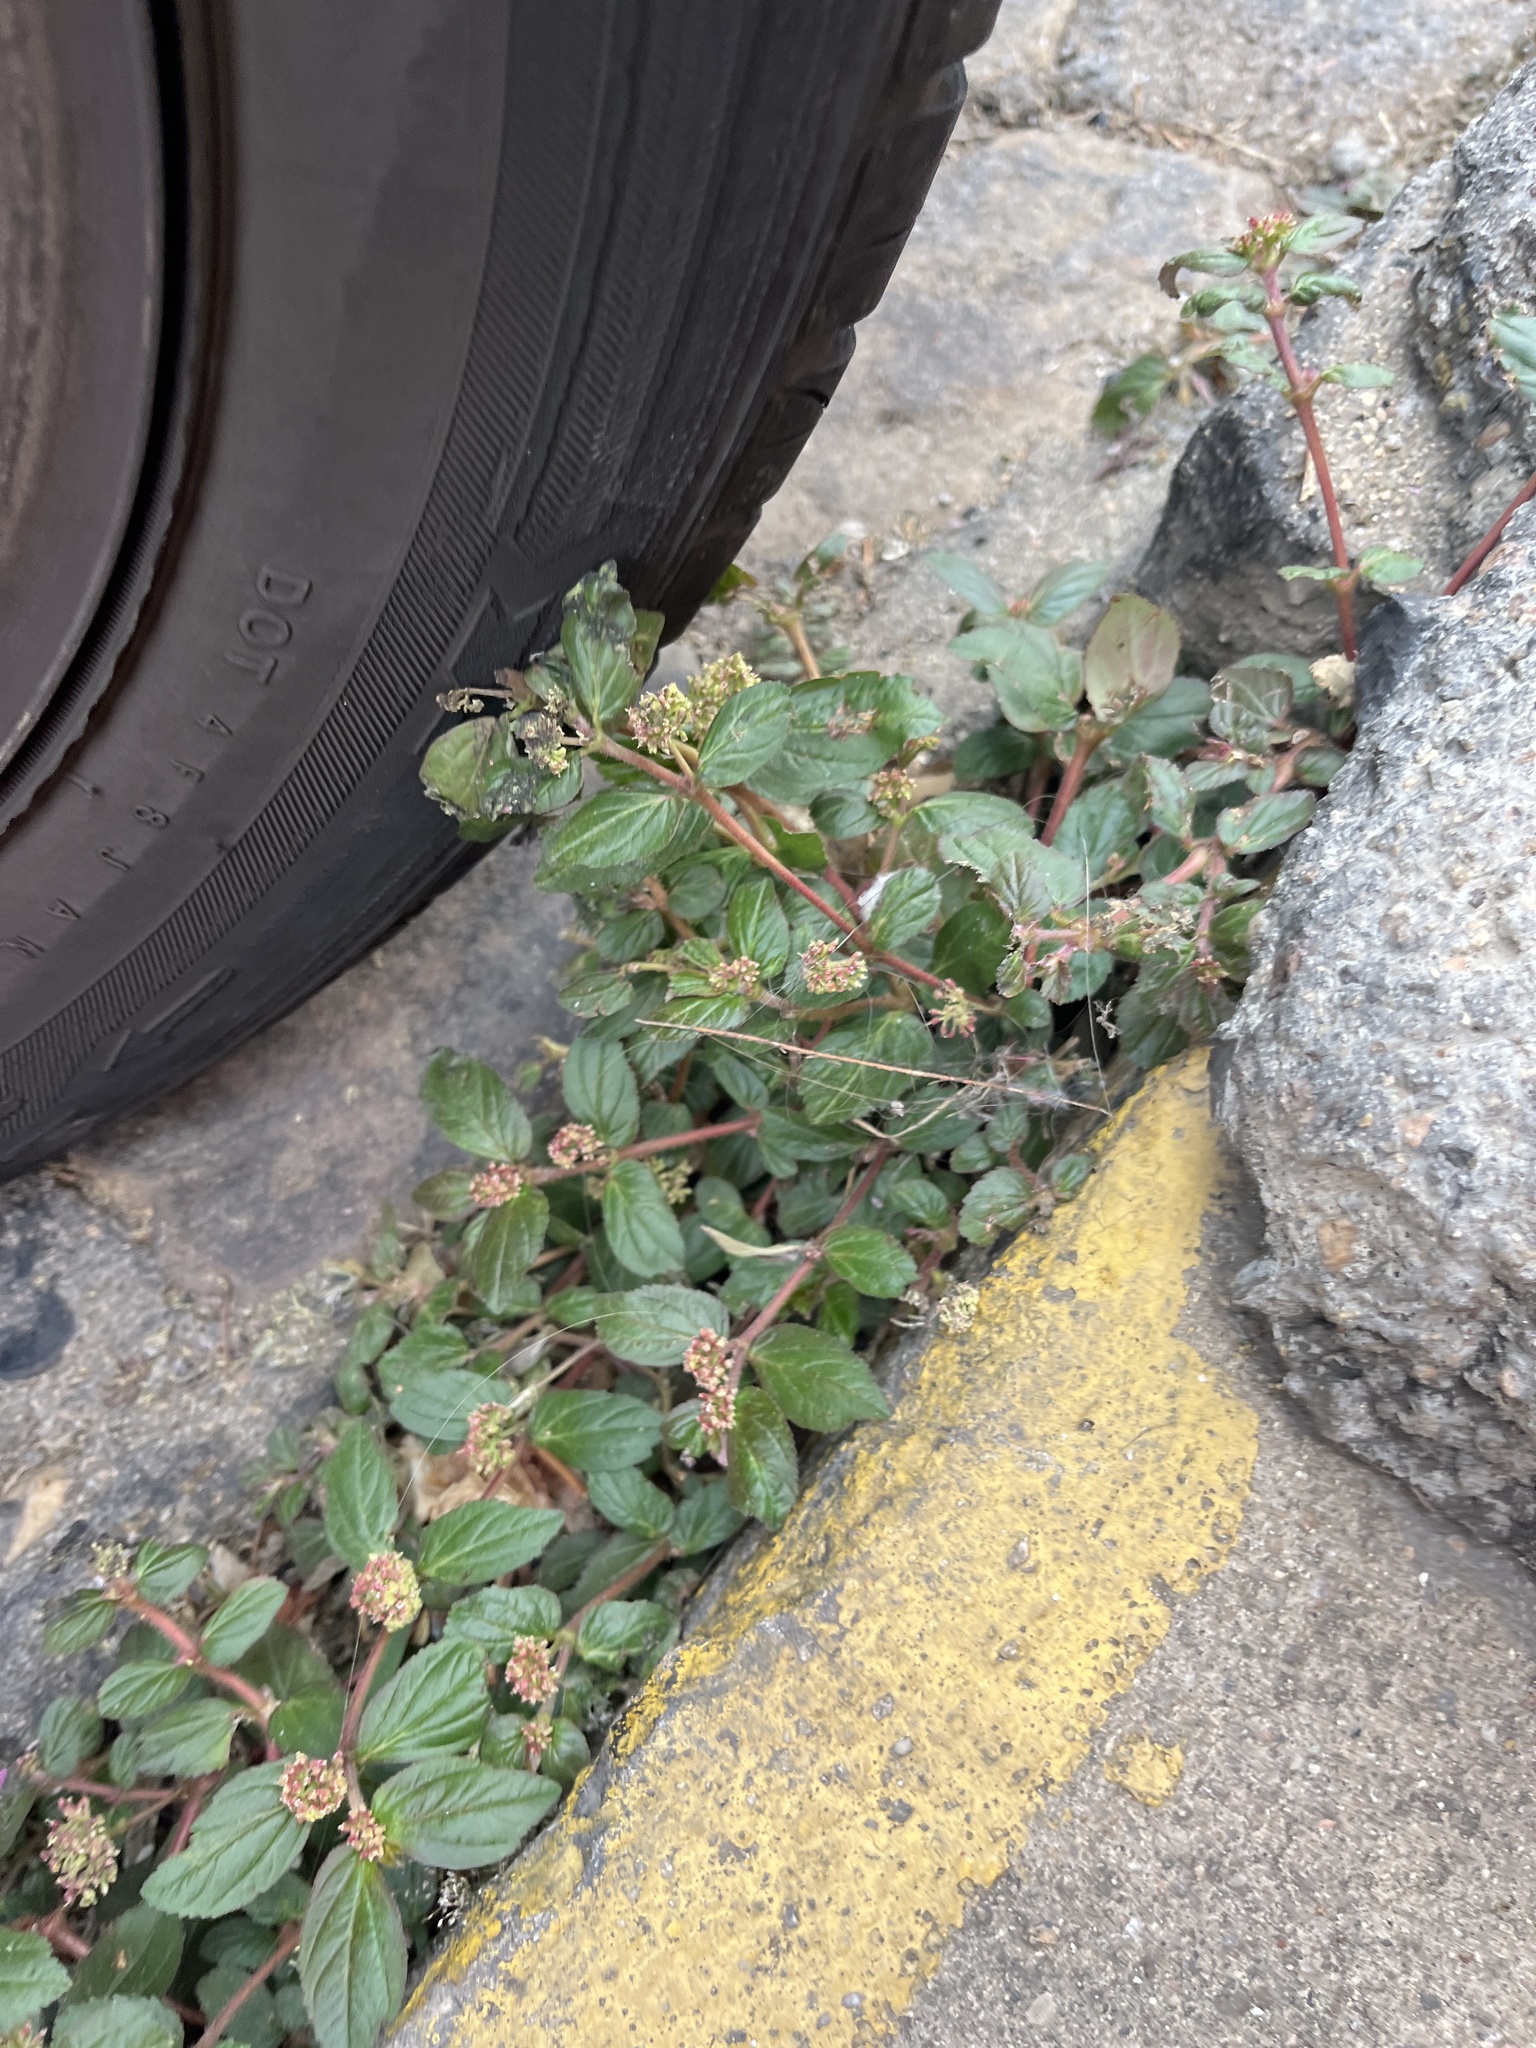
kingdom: Plantae
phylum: Tracheophyta
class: Magnoliopsida
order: Malpighiales
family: Euphorbiaceae
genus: Euphorbia
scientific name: Euphorbia hirta
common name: Pillpod sandmat
